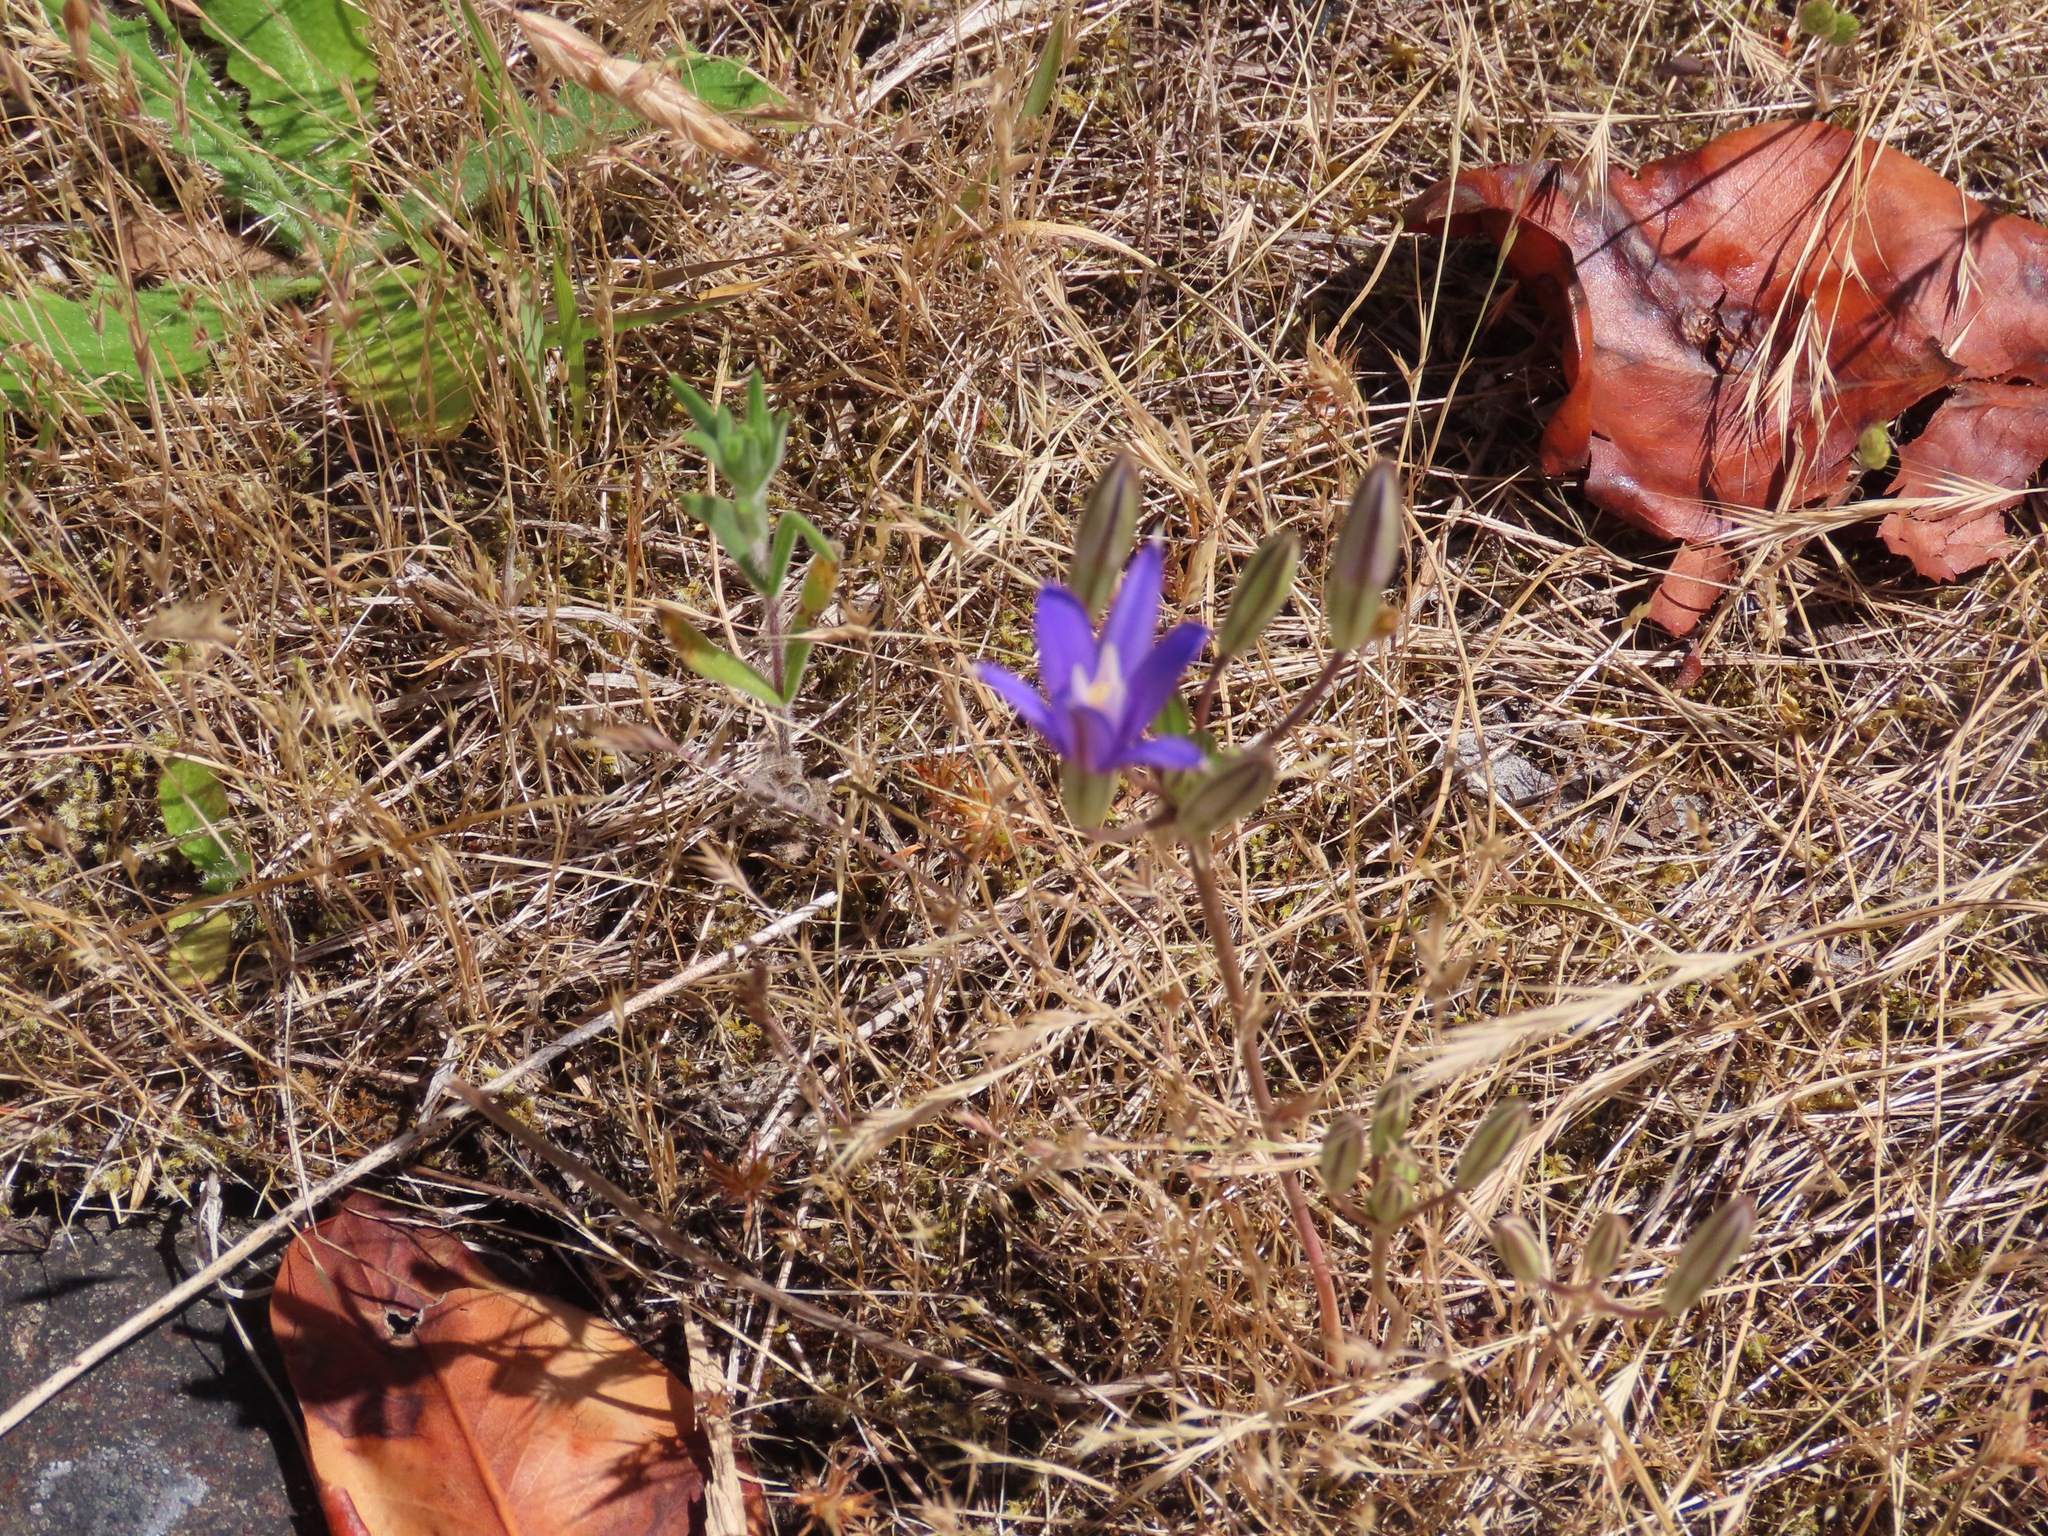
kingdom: Plantae
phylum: Tracheophyta
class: Liliopsida
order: Asparagales
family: Asparagaceae
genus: Brodiaea
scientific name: Brodiaea coronaria
